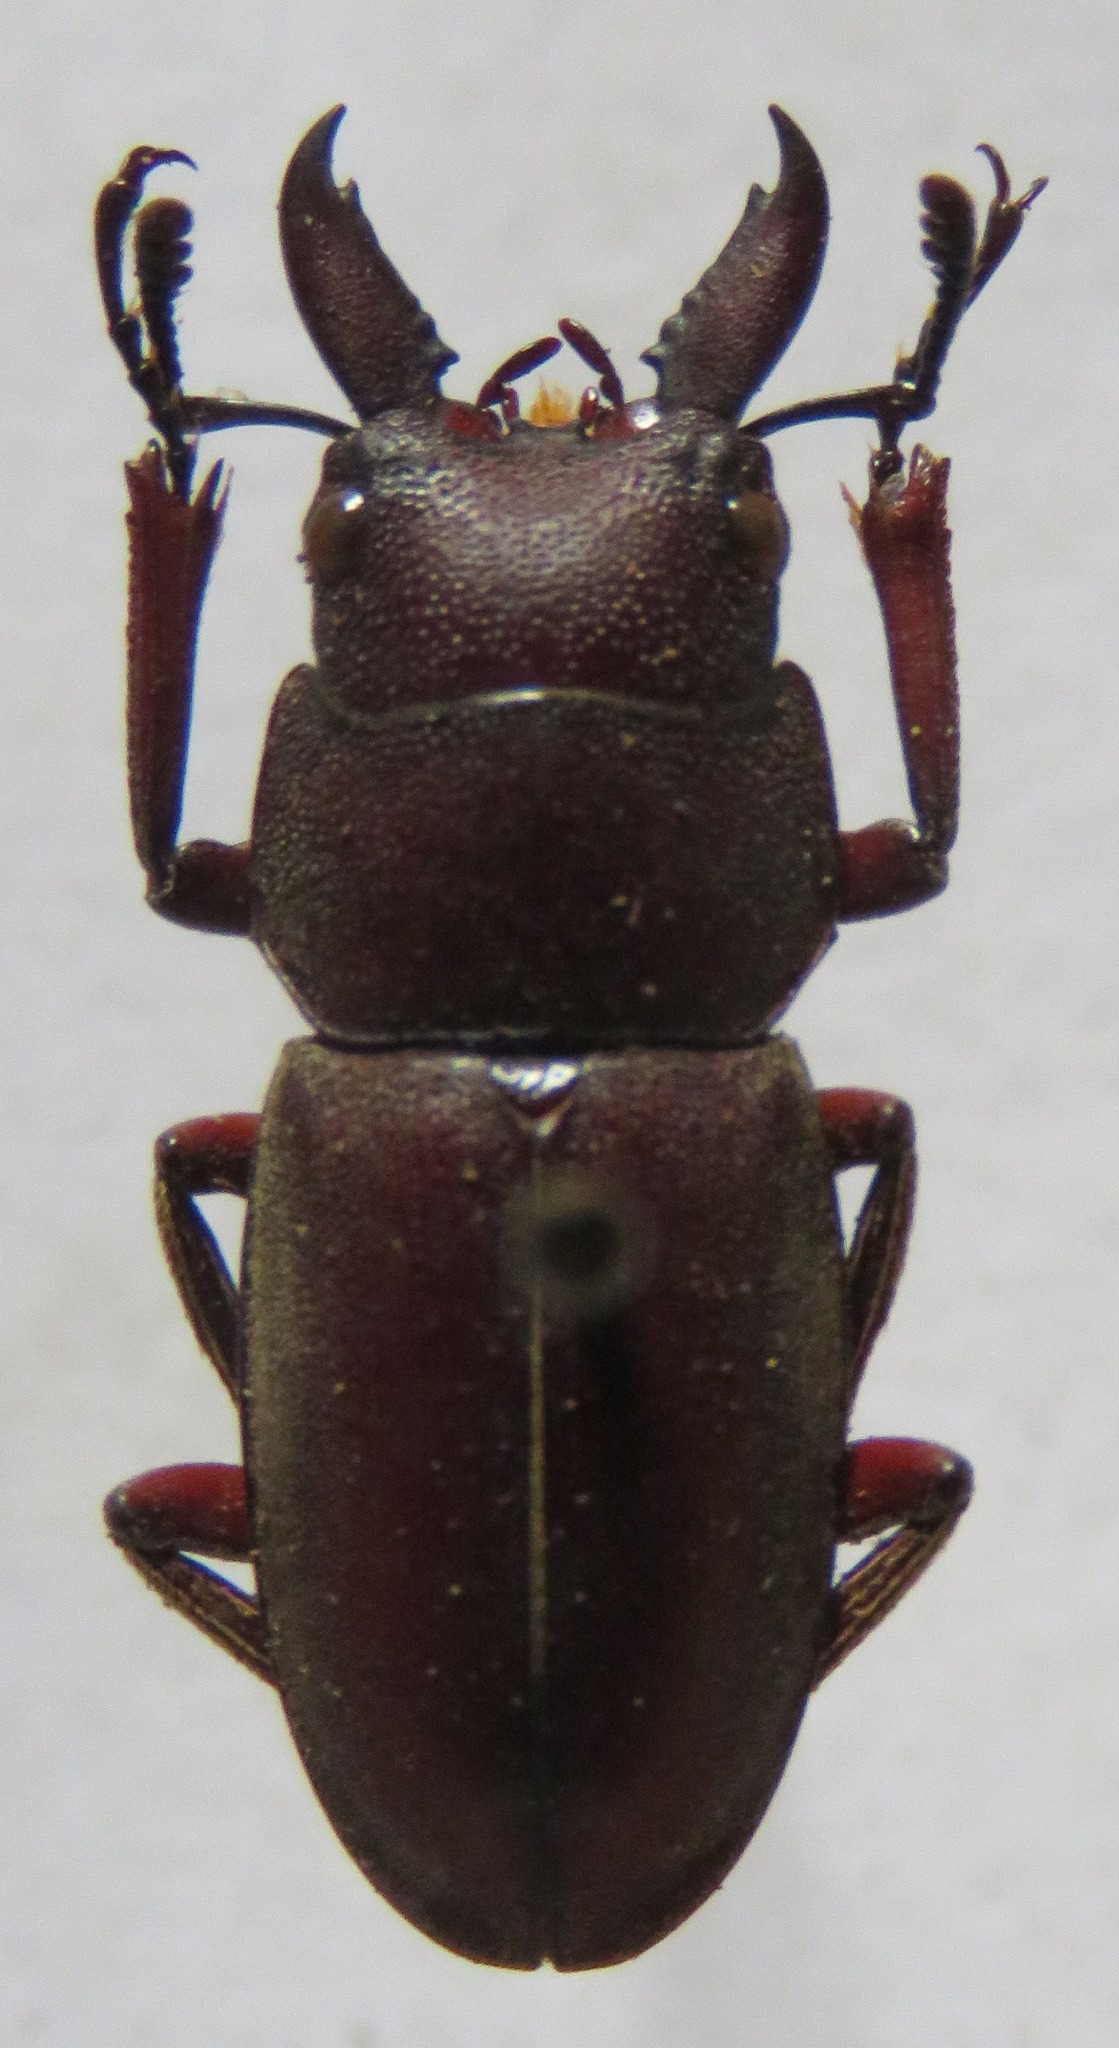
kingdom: Animalia
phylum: Arthropoda
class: Insecta
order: Coleoptera
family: Lucanidae
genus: Prosopocoilus
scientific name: Prosopocoilus mysticus
